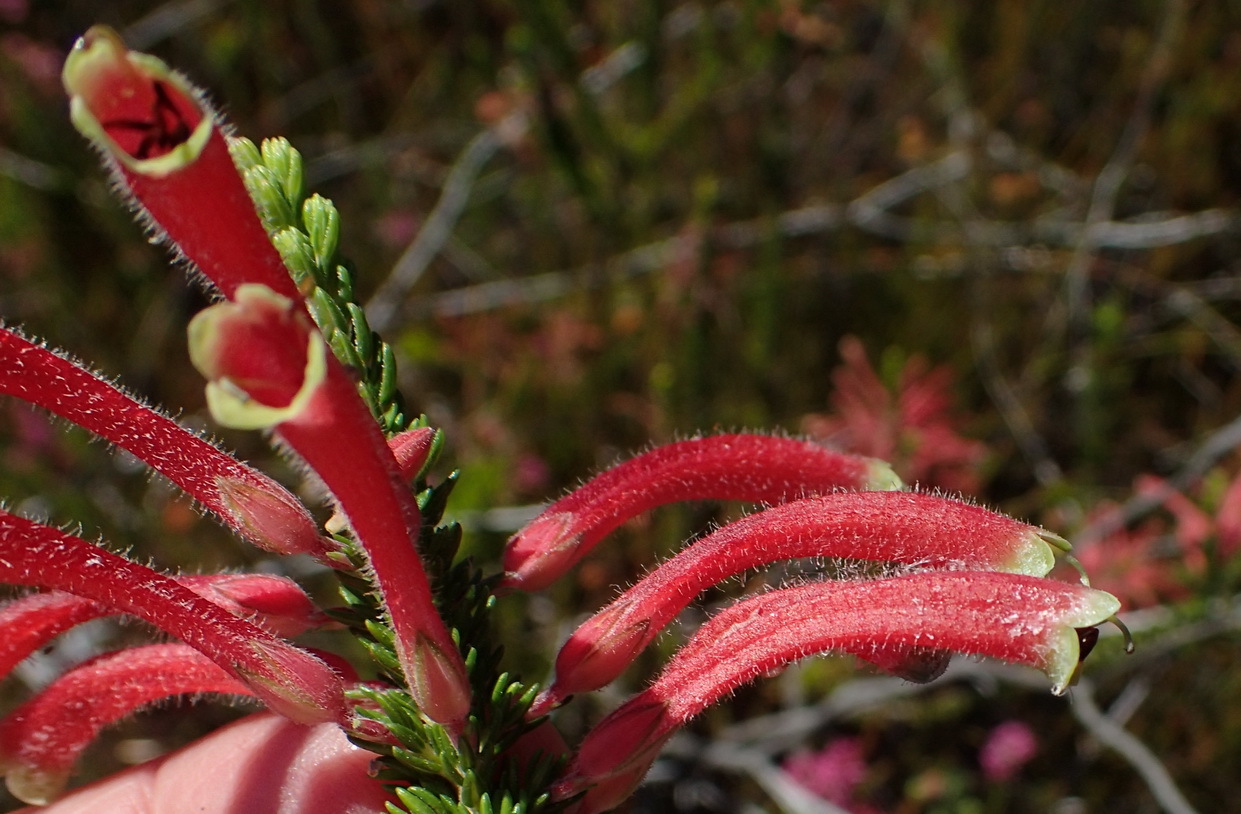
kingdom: Plantae
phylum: Tracheophyta
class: Magnoliopsida
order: Ericales
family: Ericaceae
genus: Erica
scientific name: Erica densifolia
